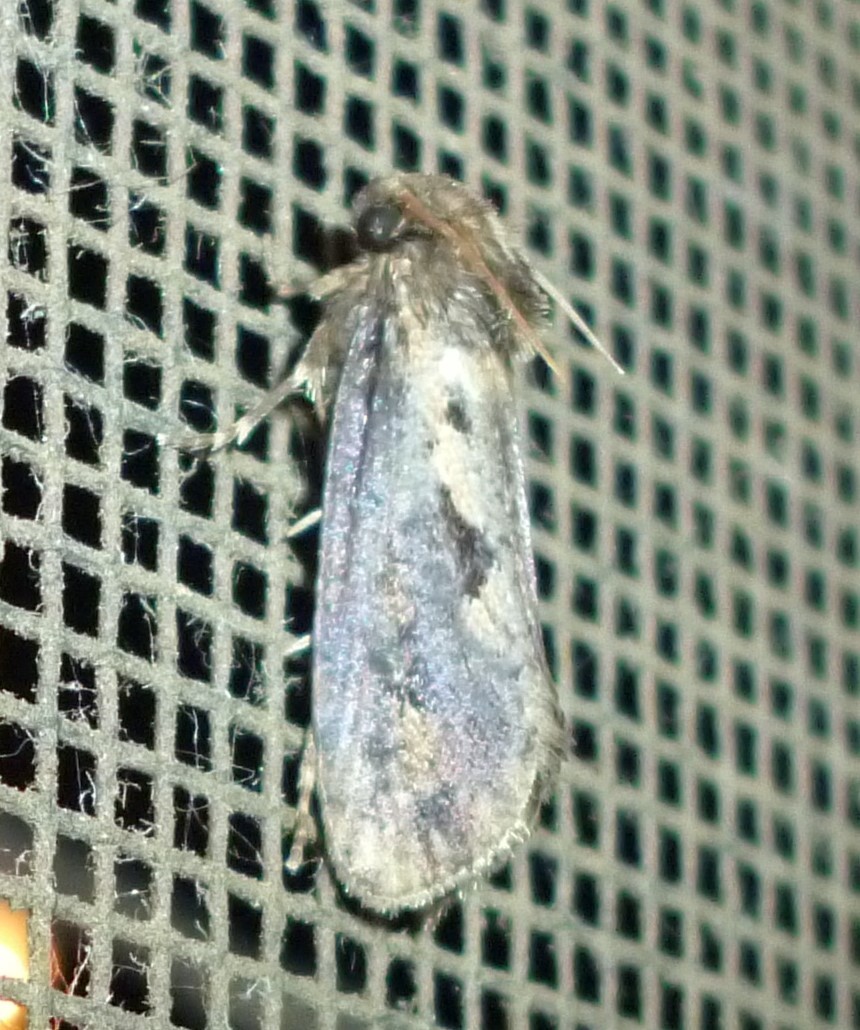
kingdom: Animalia
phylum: Arthropoda
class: Insecta
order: Lepidoptera
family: Tineidae
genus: Acrolophus
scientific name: Acrolophus popeanella
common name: Clemens' grass tubeworm moth
